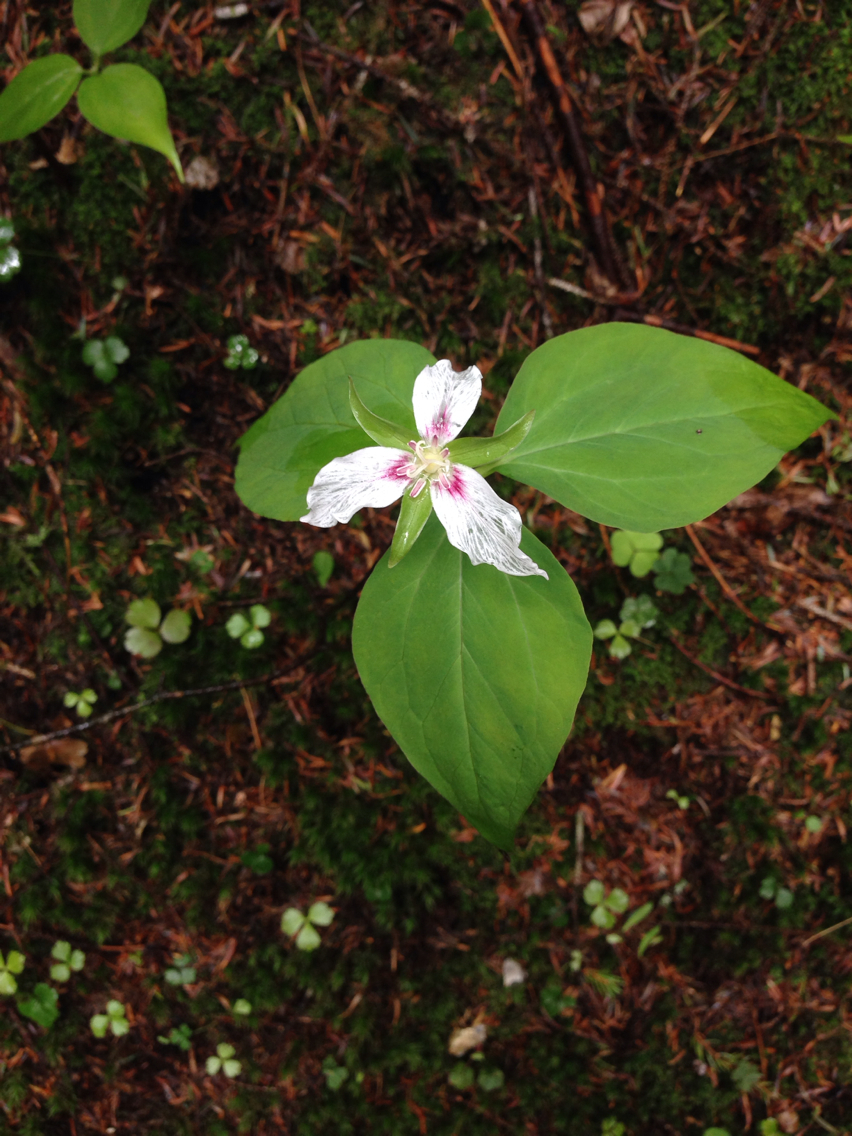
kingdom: Plantae
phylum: Tracheophyta
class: Liliopsida
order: Liliales
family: Melanthiaceae
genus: Trillium
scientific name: Trillium undulatum
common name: Paint trillium
